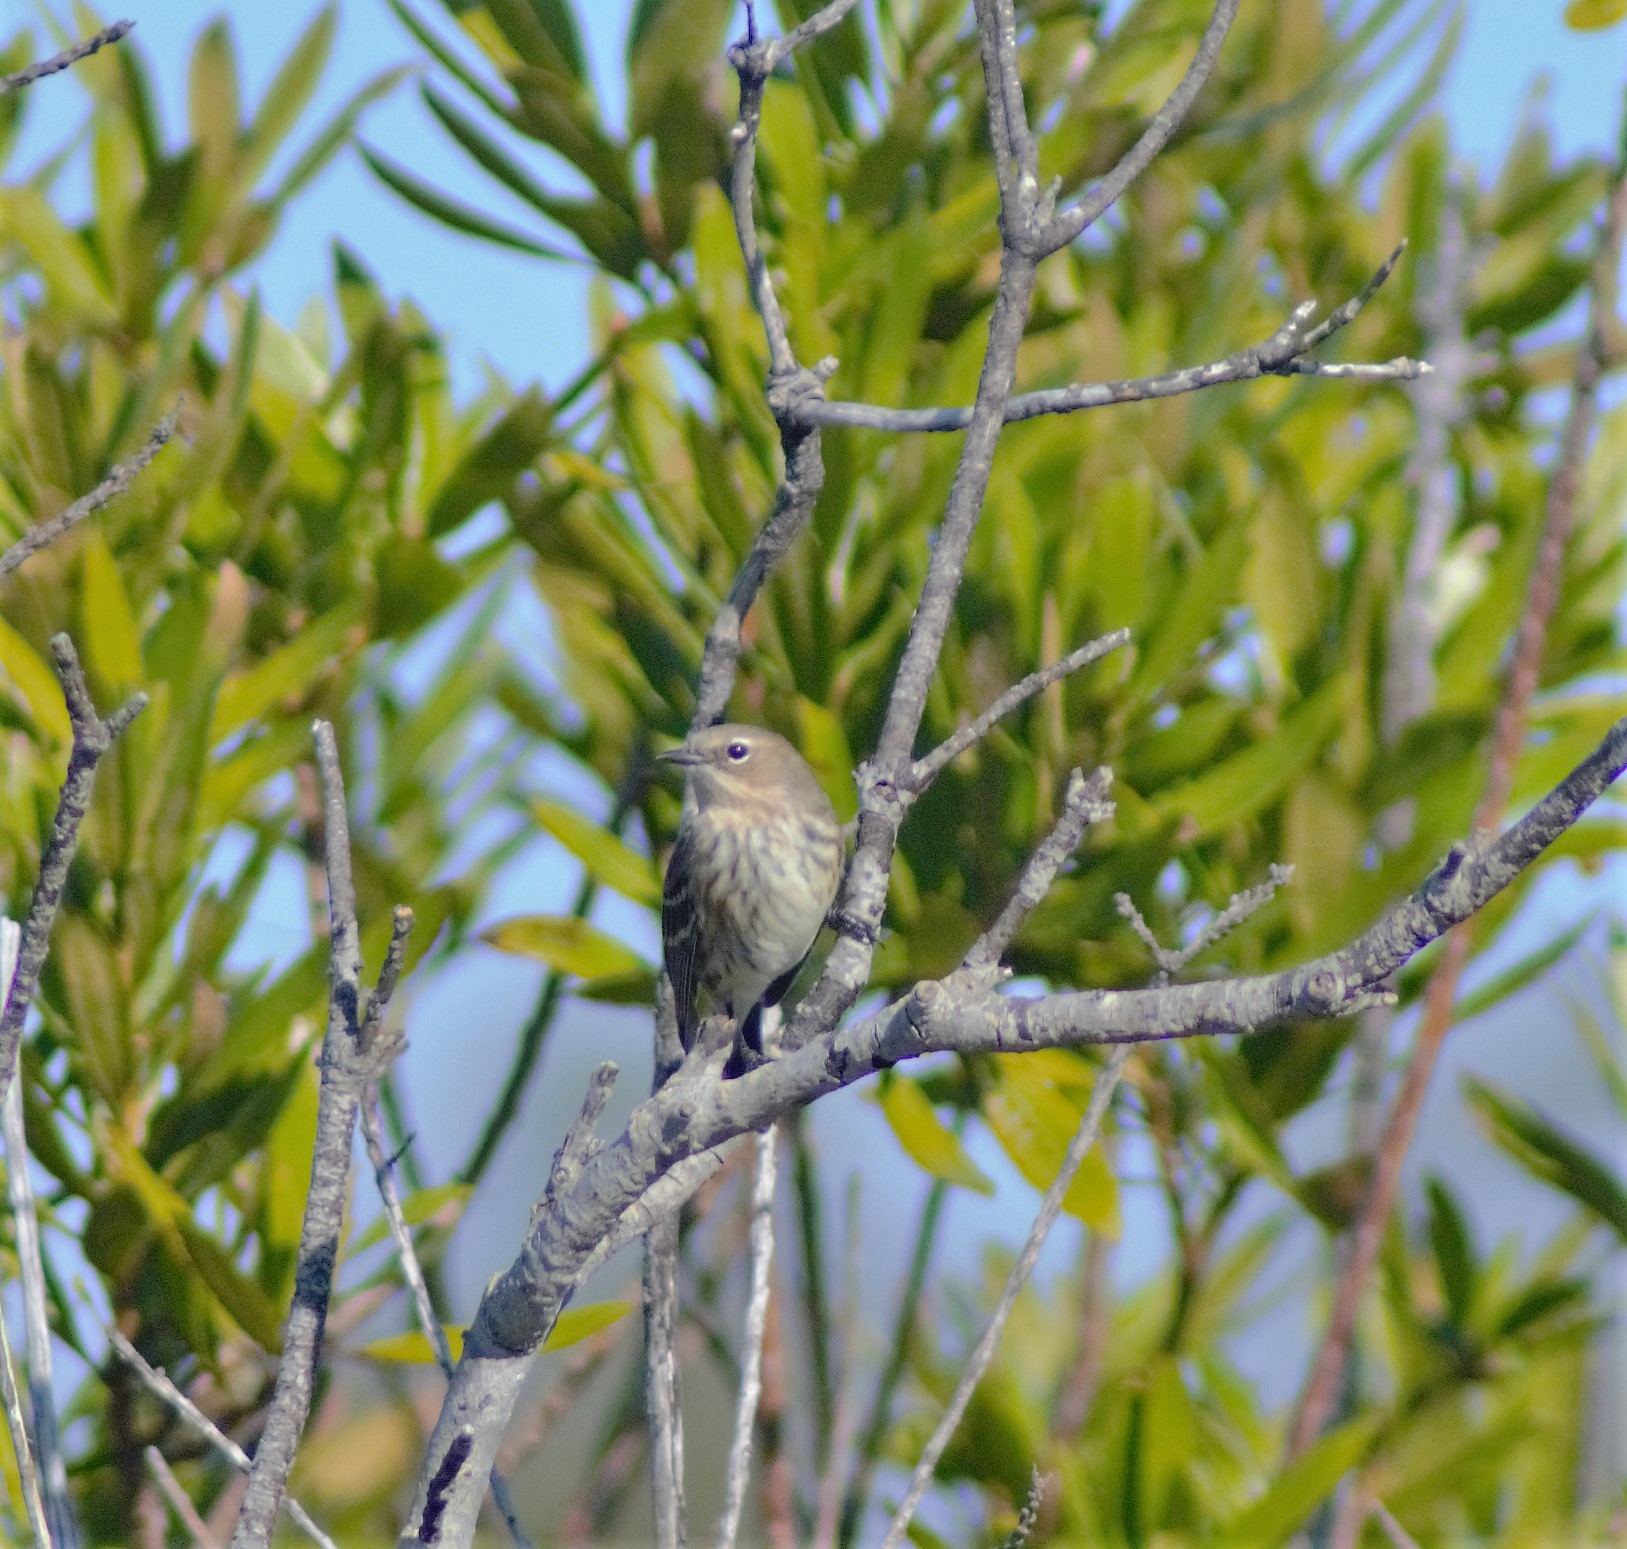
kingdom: Animalia
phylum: Chordata
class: Aves
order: Passeriformes
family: Parulidae
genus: Setophaga
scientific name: Setophaga coronata
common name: Myrtle warbler
